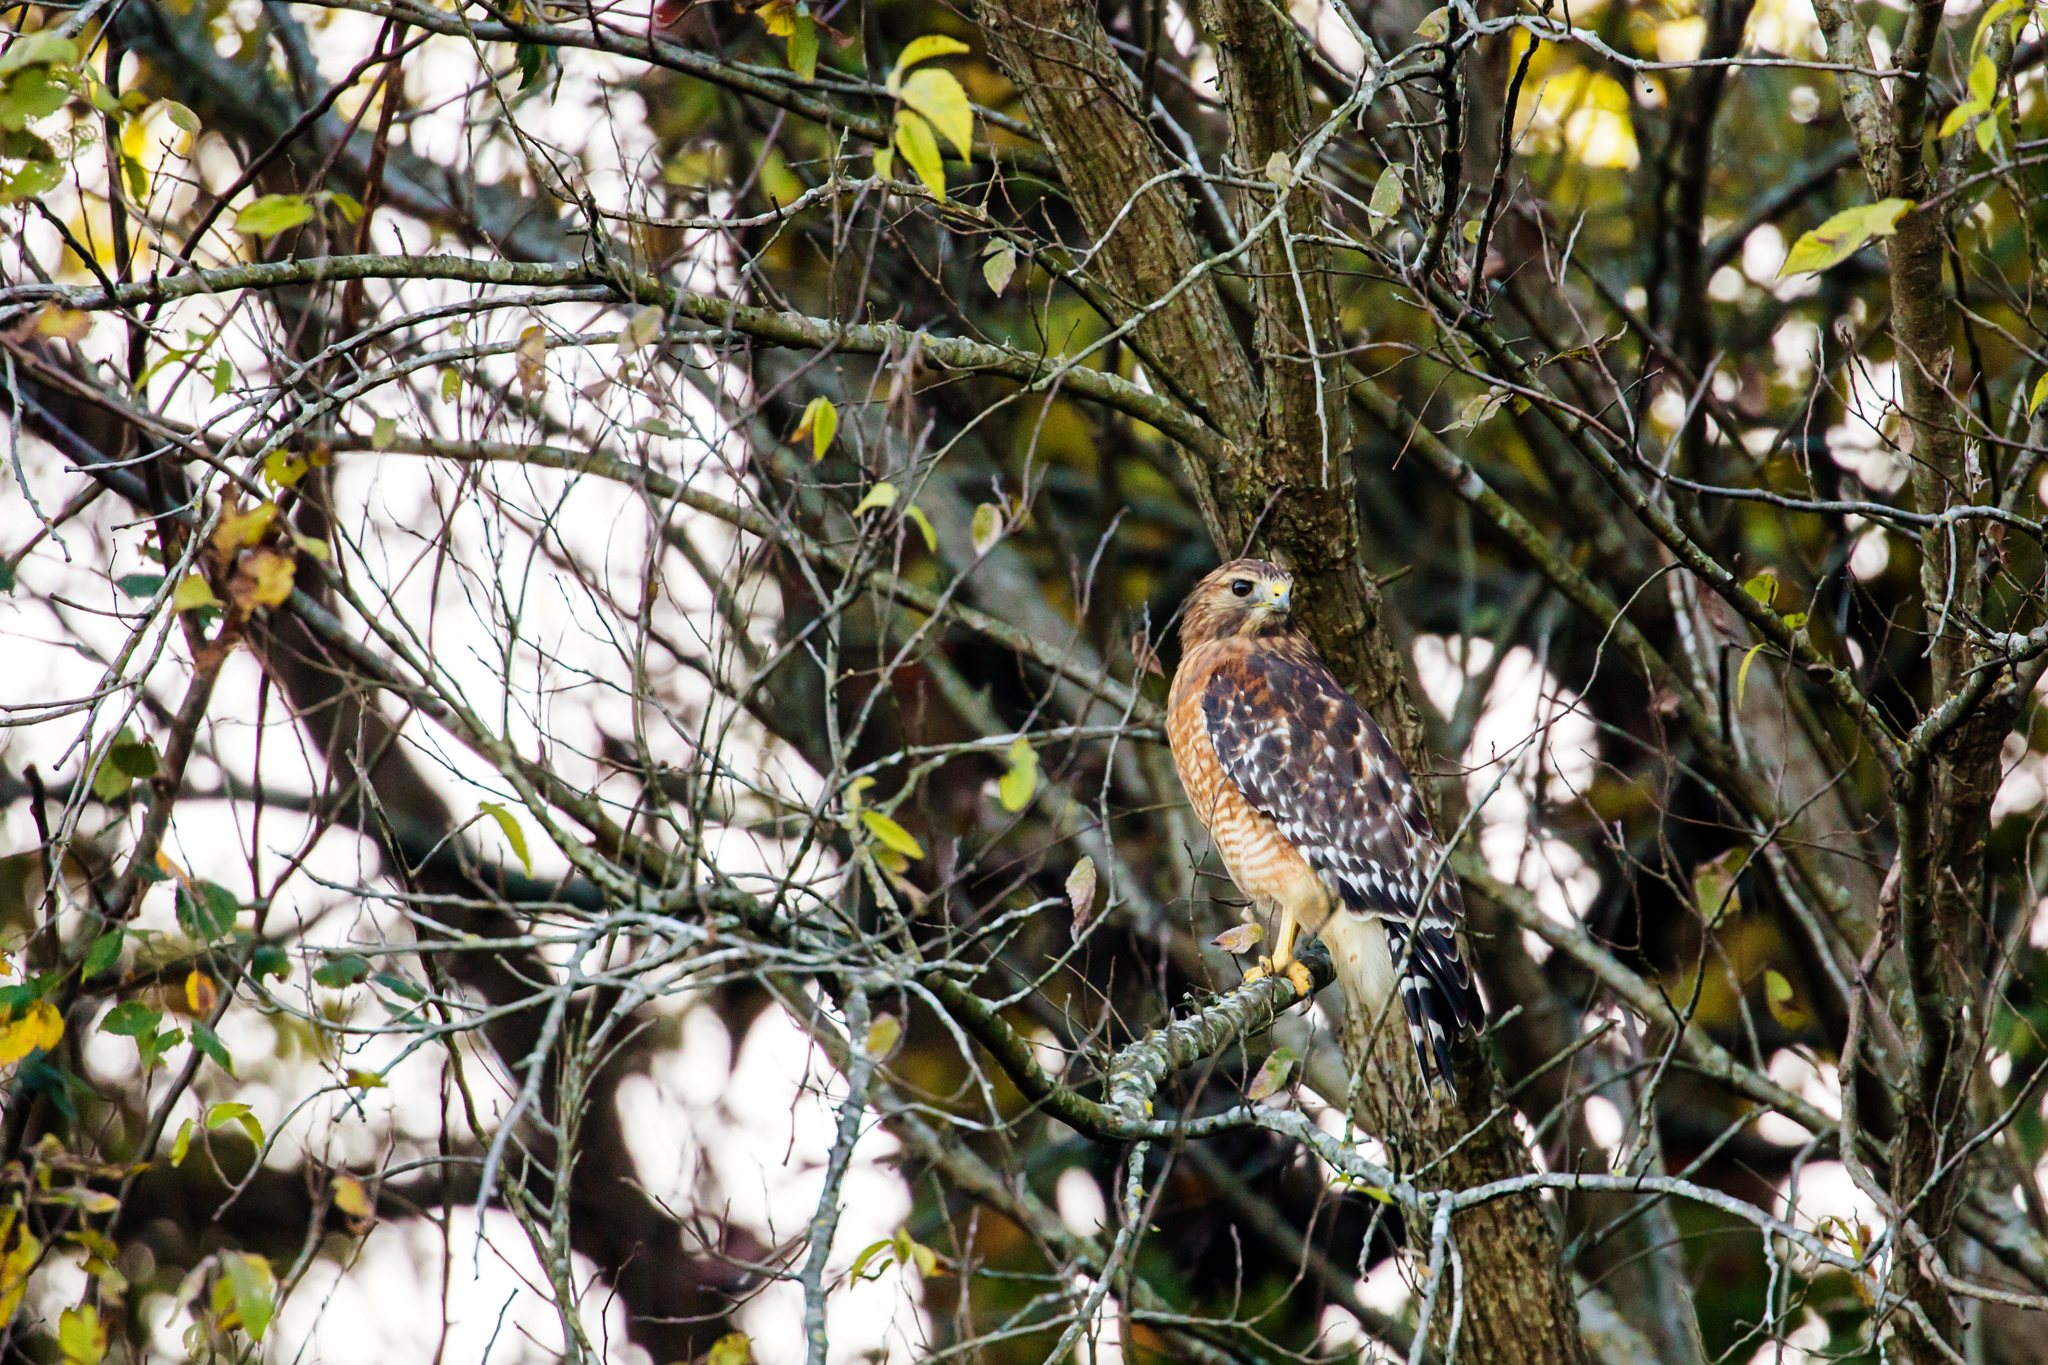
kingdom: Animalia
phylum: Chordata
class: Aves
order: Accipitriformes
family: Accipitridae
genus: Buteo
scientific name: Buteo lineatus
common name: Red-shouldered hawk
